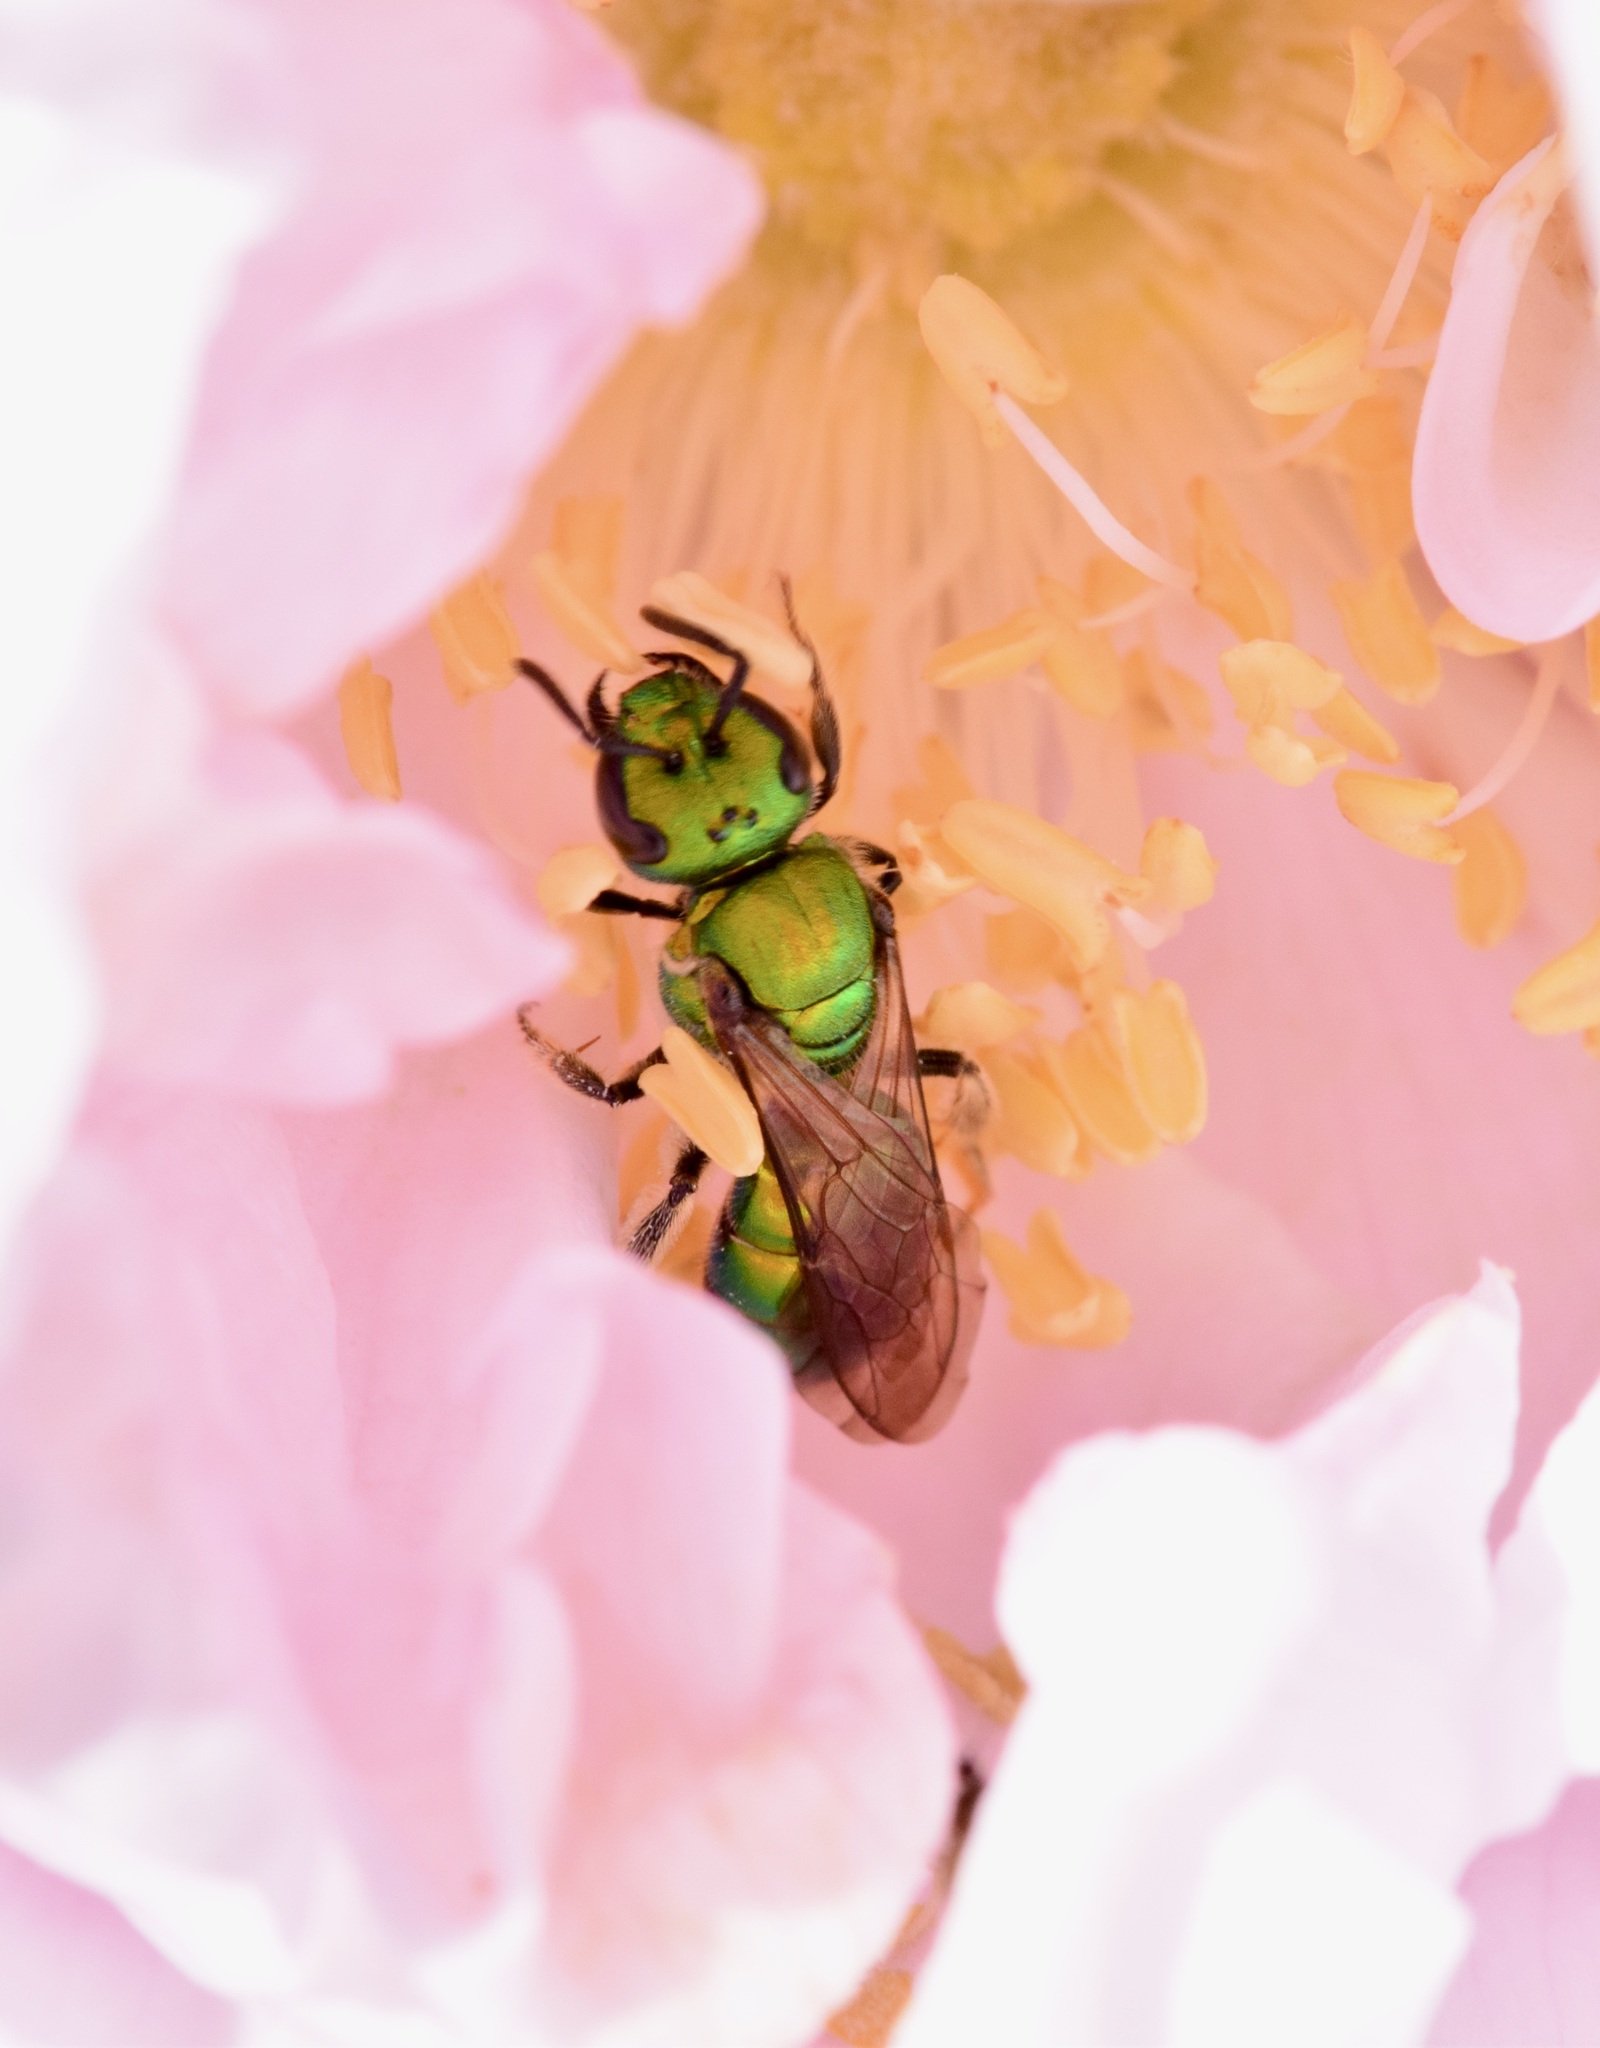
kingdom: Animalia
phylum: Arthropoda
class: Insecta
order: Hymenoptera
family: Halictidae
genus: Augochlora
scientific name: Augochlora pura
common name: Pure green sweat bee
